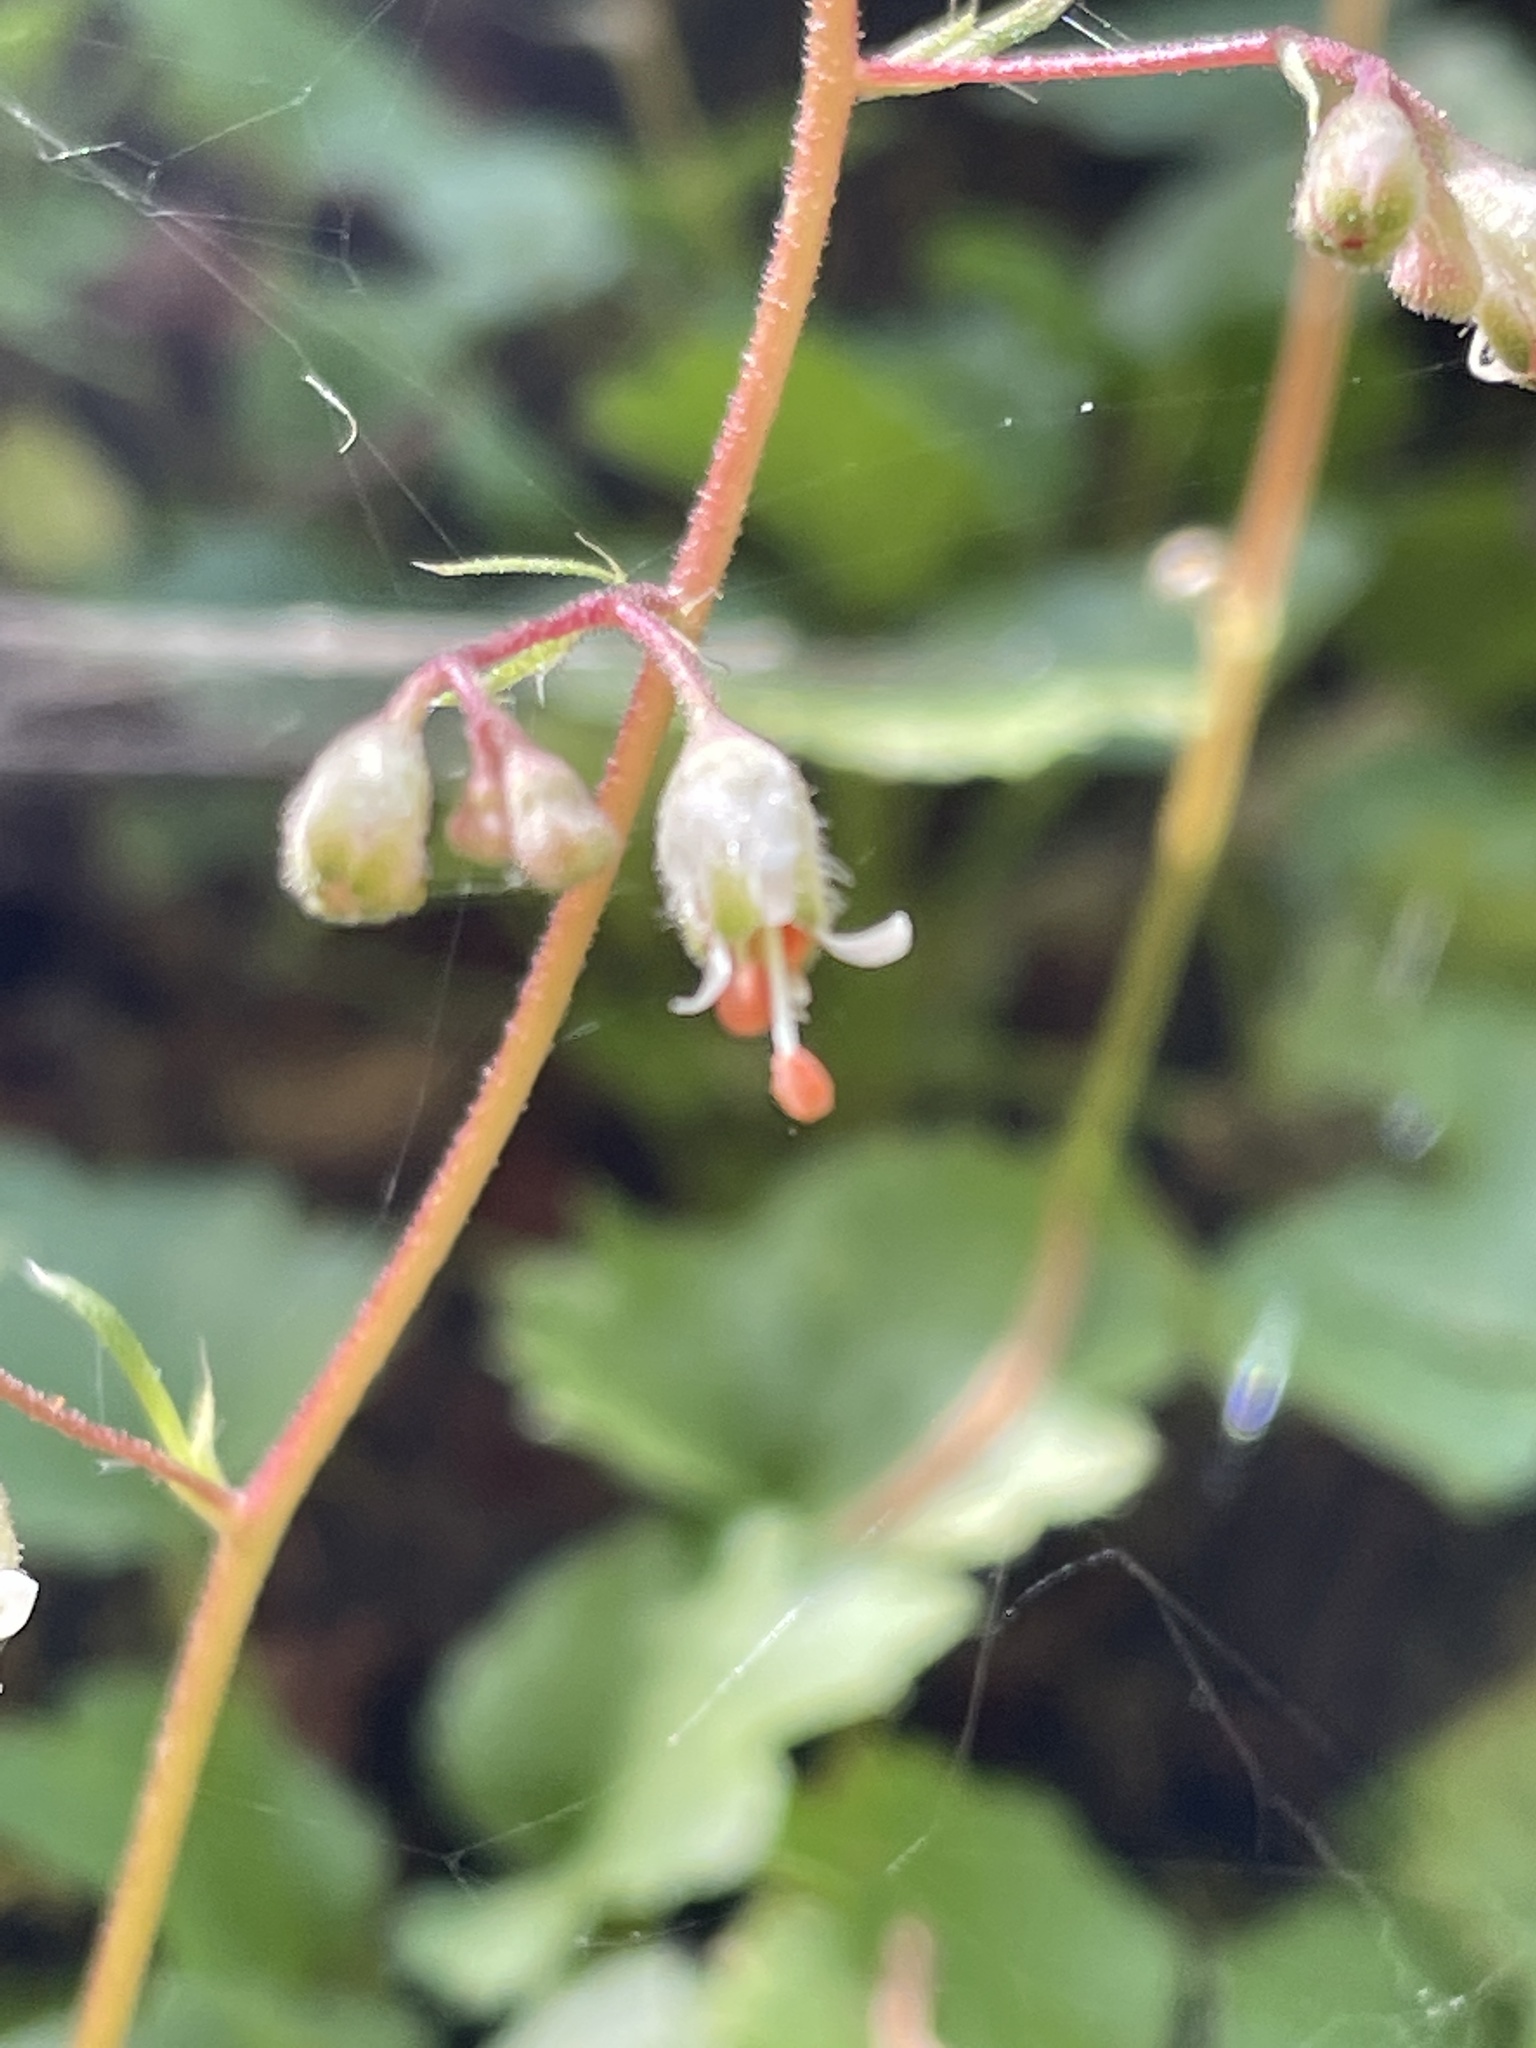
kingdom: Plantae
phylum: Tracheophyta
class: Magnoliopsida
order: Saxifragales
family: Saxifragaceae
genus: Heuchera
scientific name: Heuchera rubescens
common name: Jack-o'the-rocks
